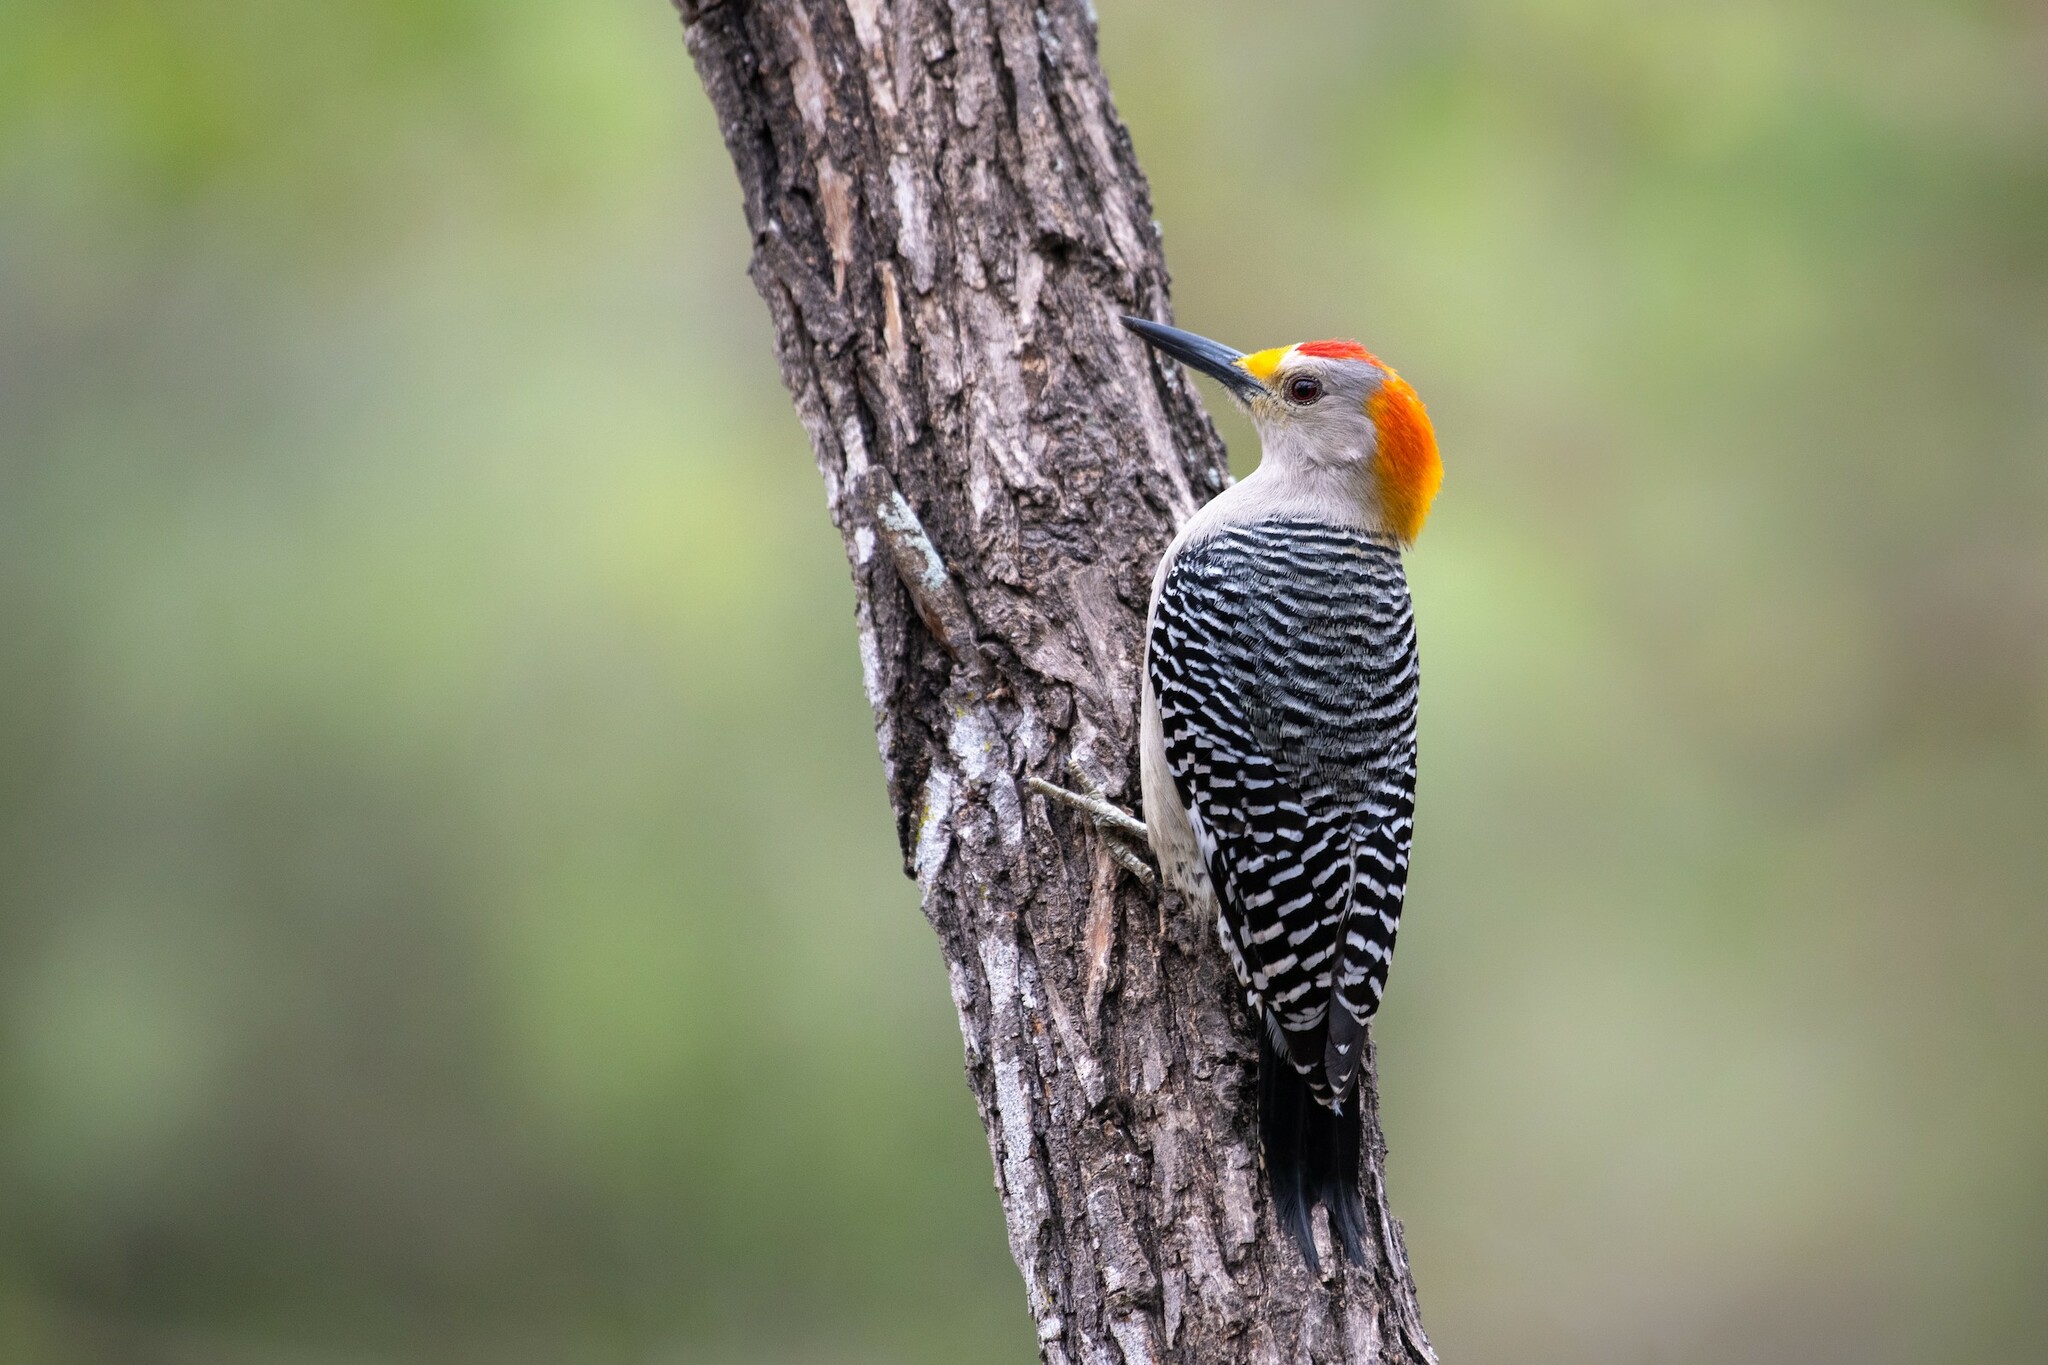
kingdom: Animalia
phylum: Chordata
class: Aves
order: Piciformes
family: Picidae
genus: Melanerpes
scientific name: Melanerpes aurifrons
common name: Golden-fronted woodpecker
